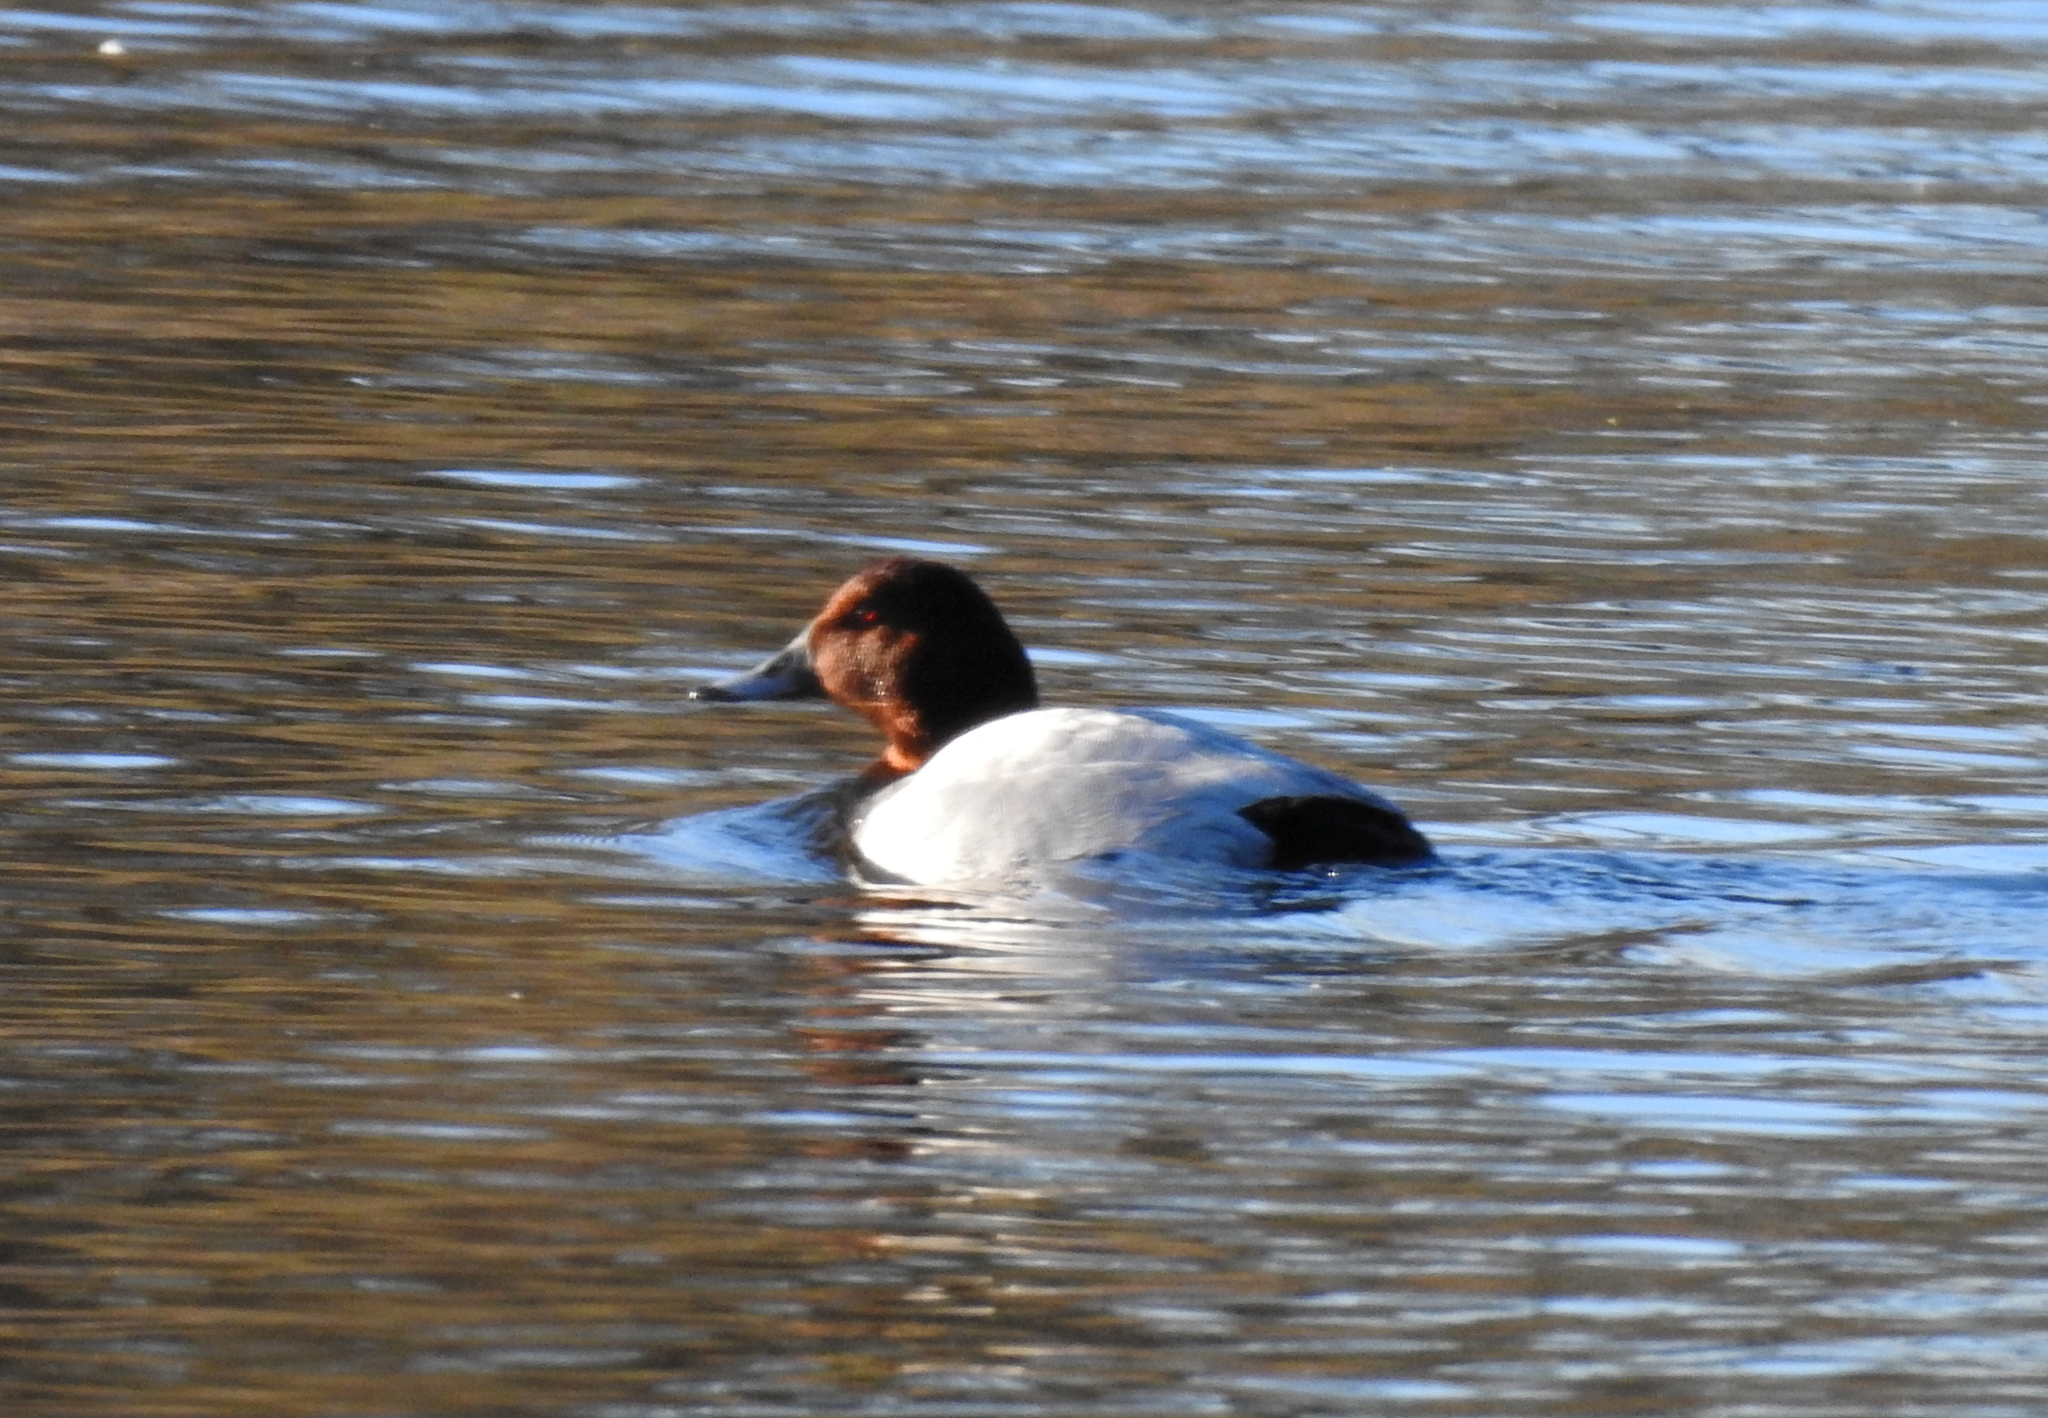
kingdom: Animalia
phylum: Chordata
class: Aves
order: Anseriformes
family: Anatidae
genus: Aythya
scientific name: Aythya ferina
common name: Common pochard
